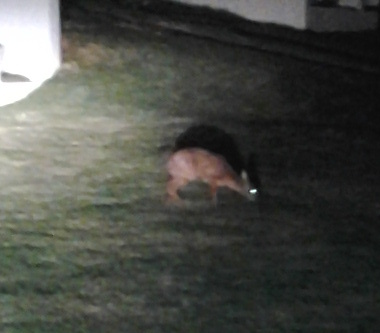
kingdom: Animalia
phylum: Chordata
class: Mammalia
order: Artiodactyla
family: Bovidae
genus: Raphicerus
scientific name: Raphicerus melanotis
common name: Cape grysbok
